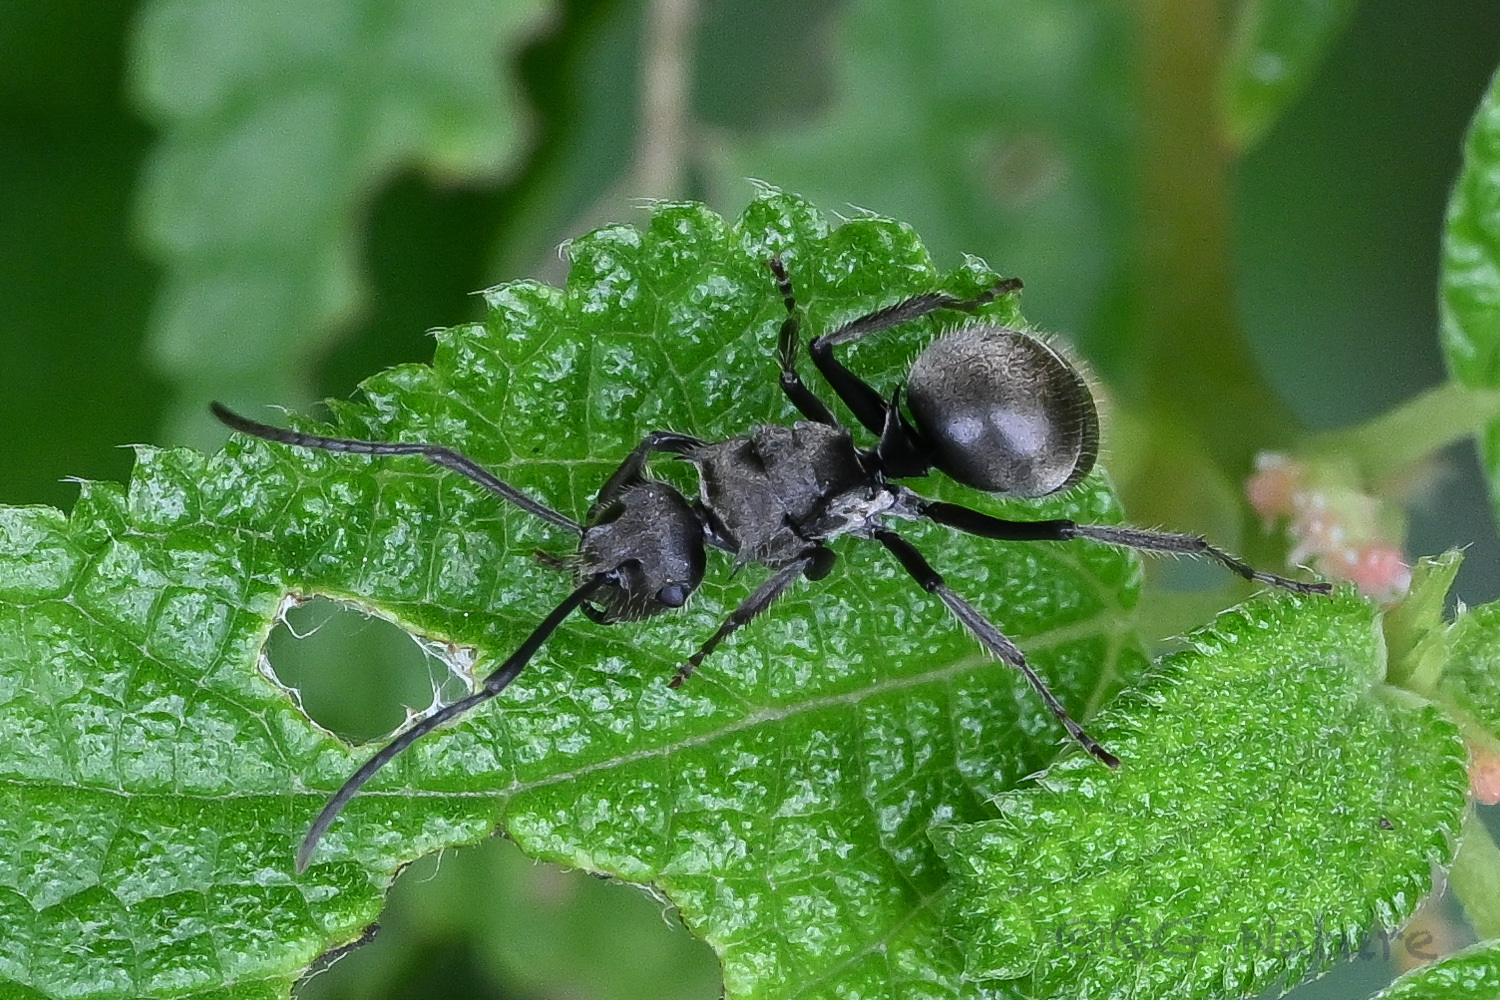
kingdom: Animalia
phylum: Arthropoda
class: Insecta
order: Hymenoptera
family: Formicidae
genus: Polyrhachis
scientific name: Polyrhachis vigilans
